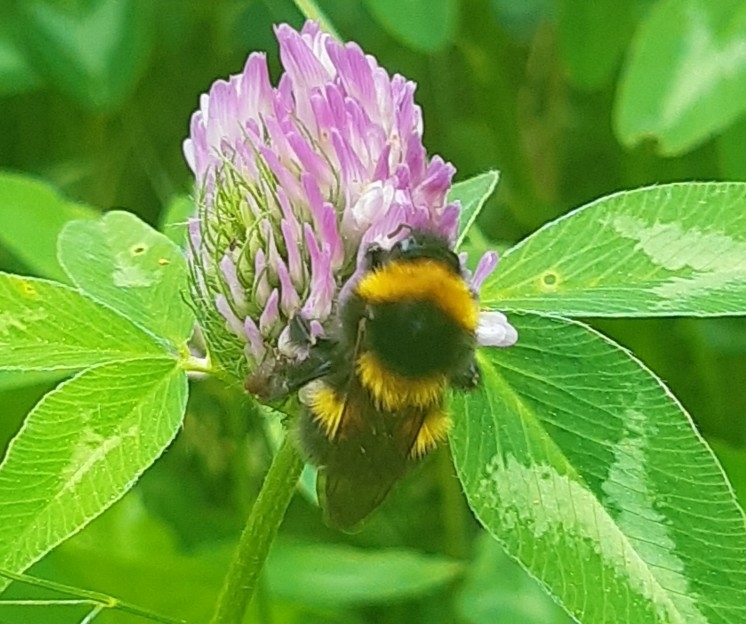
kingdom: Animalia
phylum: Arthropoda
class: Insecta
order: Hymenoptera
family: Apidae
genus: Bombus
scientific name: Bombus hortorum
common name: Garden bumblebee
